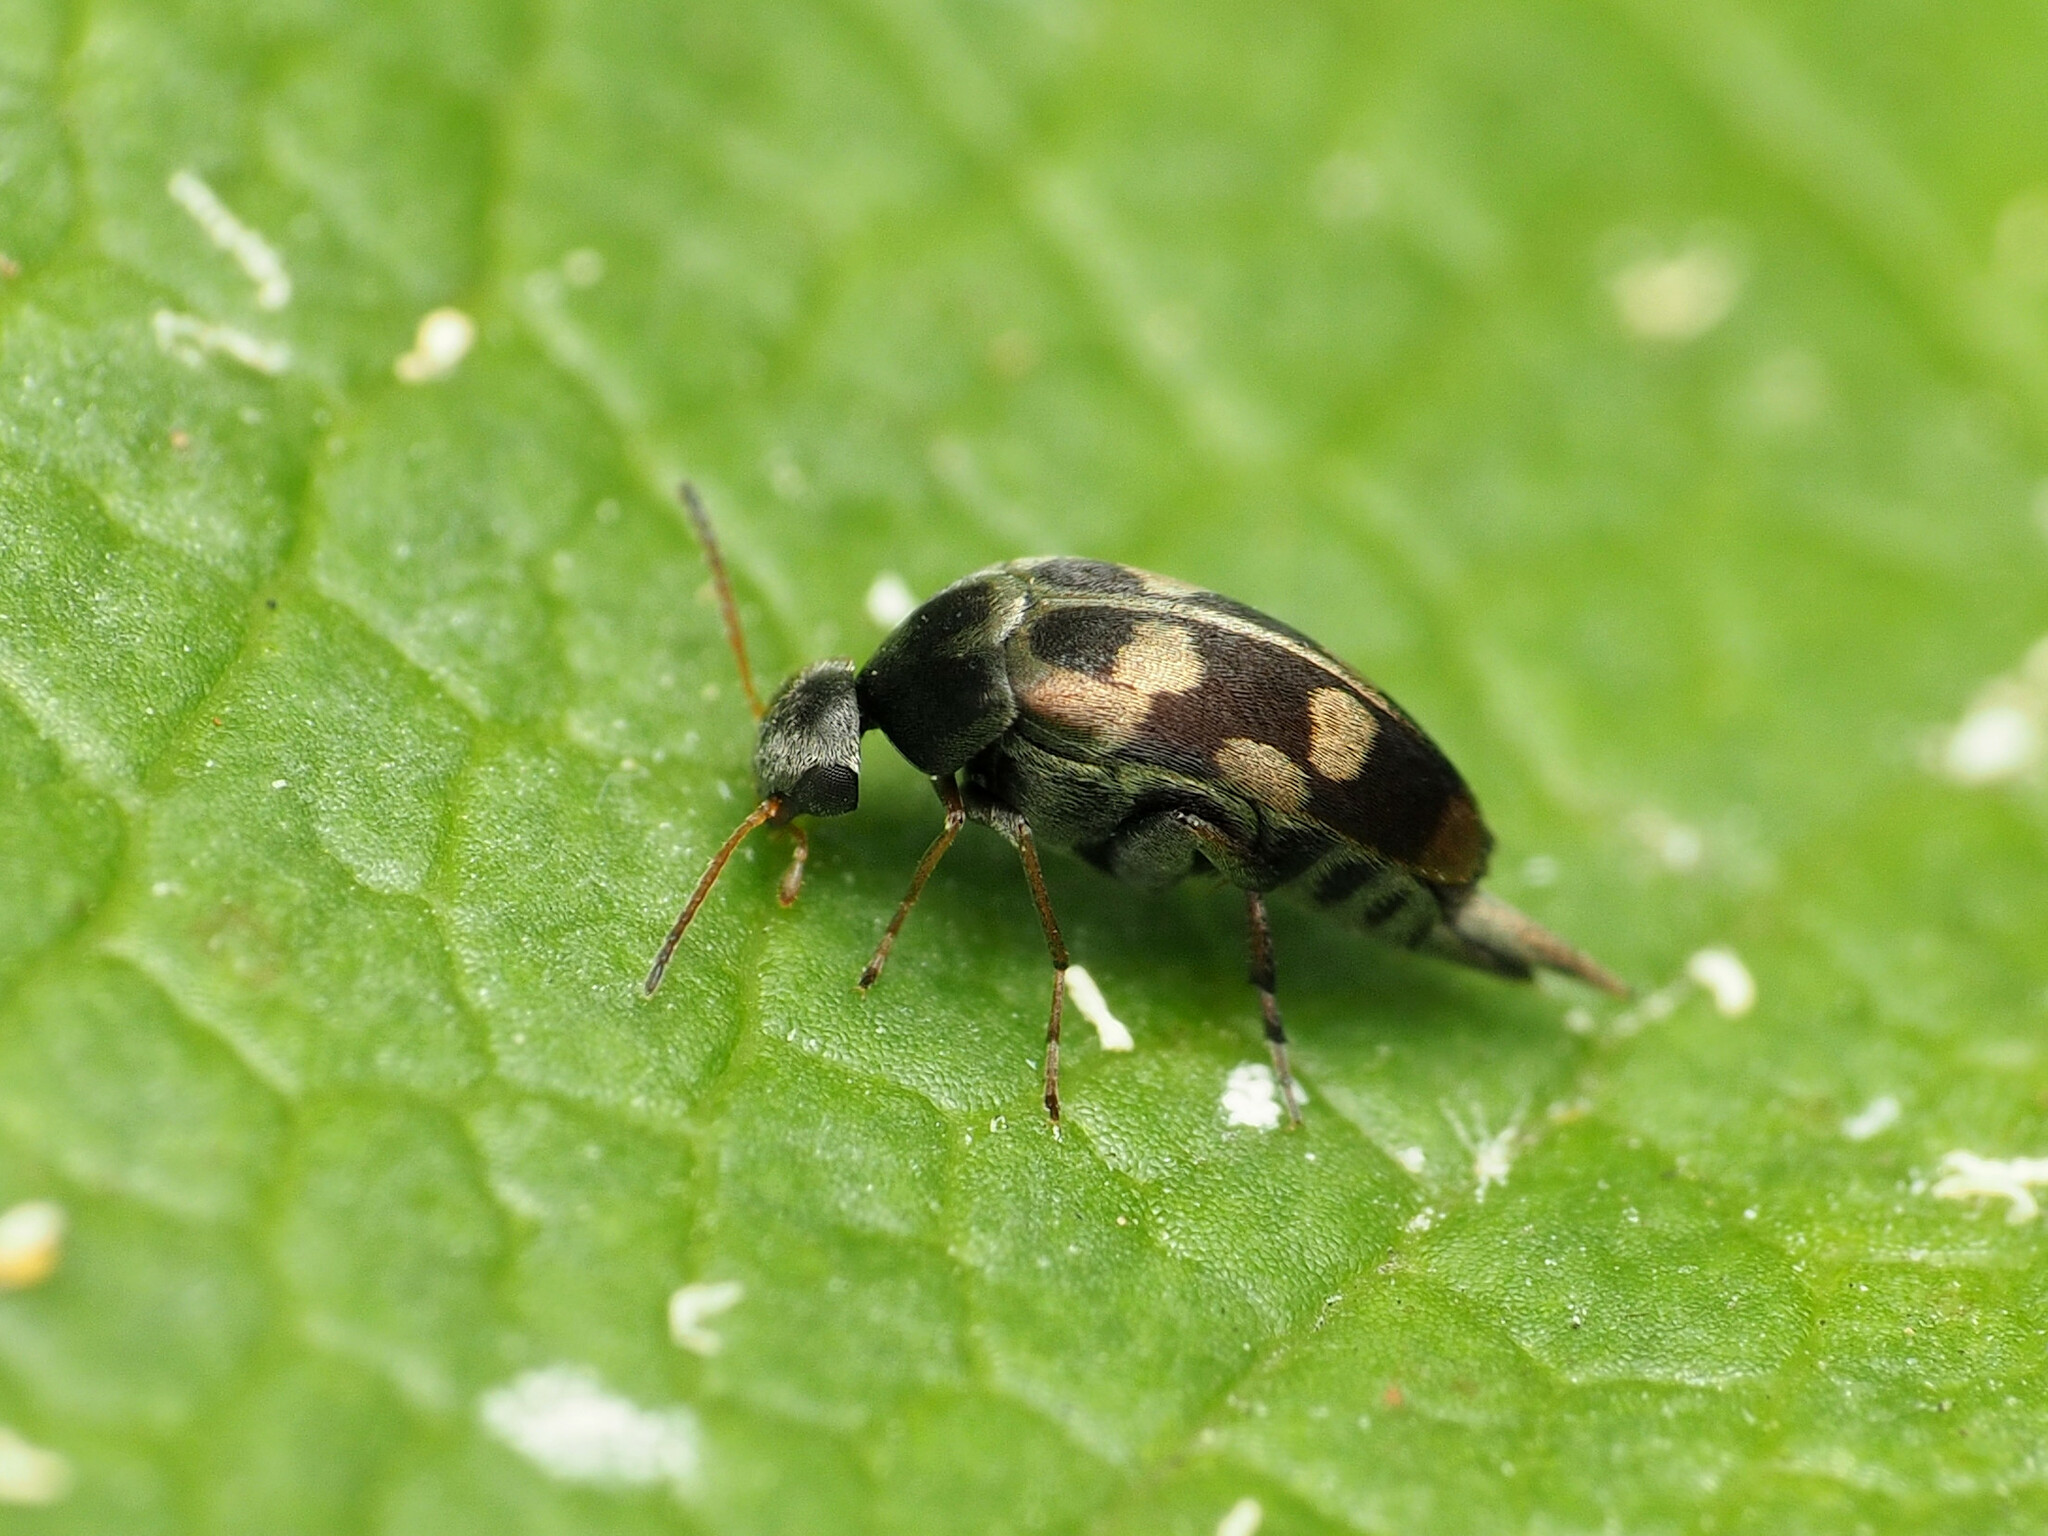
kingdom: Animalia
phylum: Arthropoda
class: Insecta
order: Coleoptera
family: Mordellidae
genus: Falsomordellistena
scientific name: Falsomordellistena pubescens
